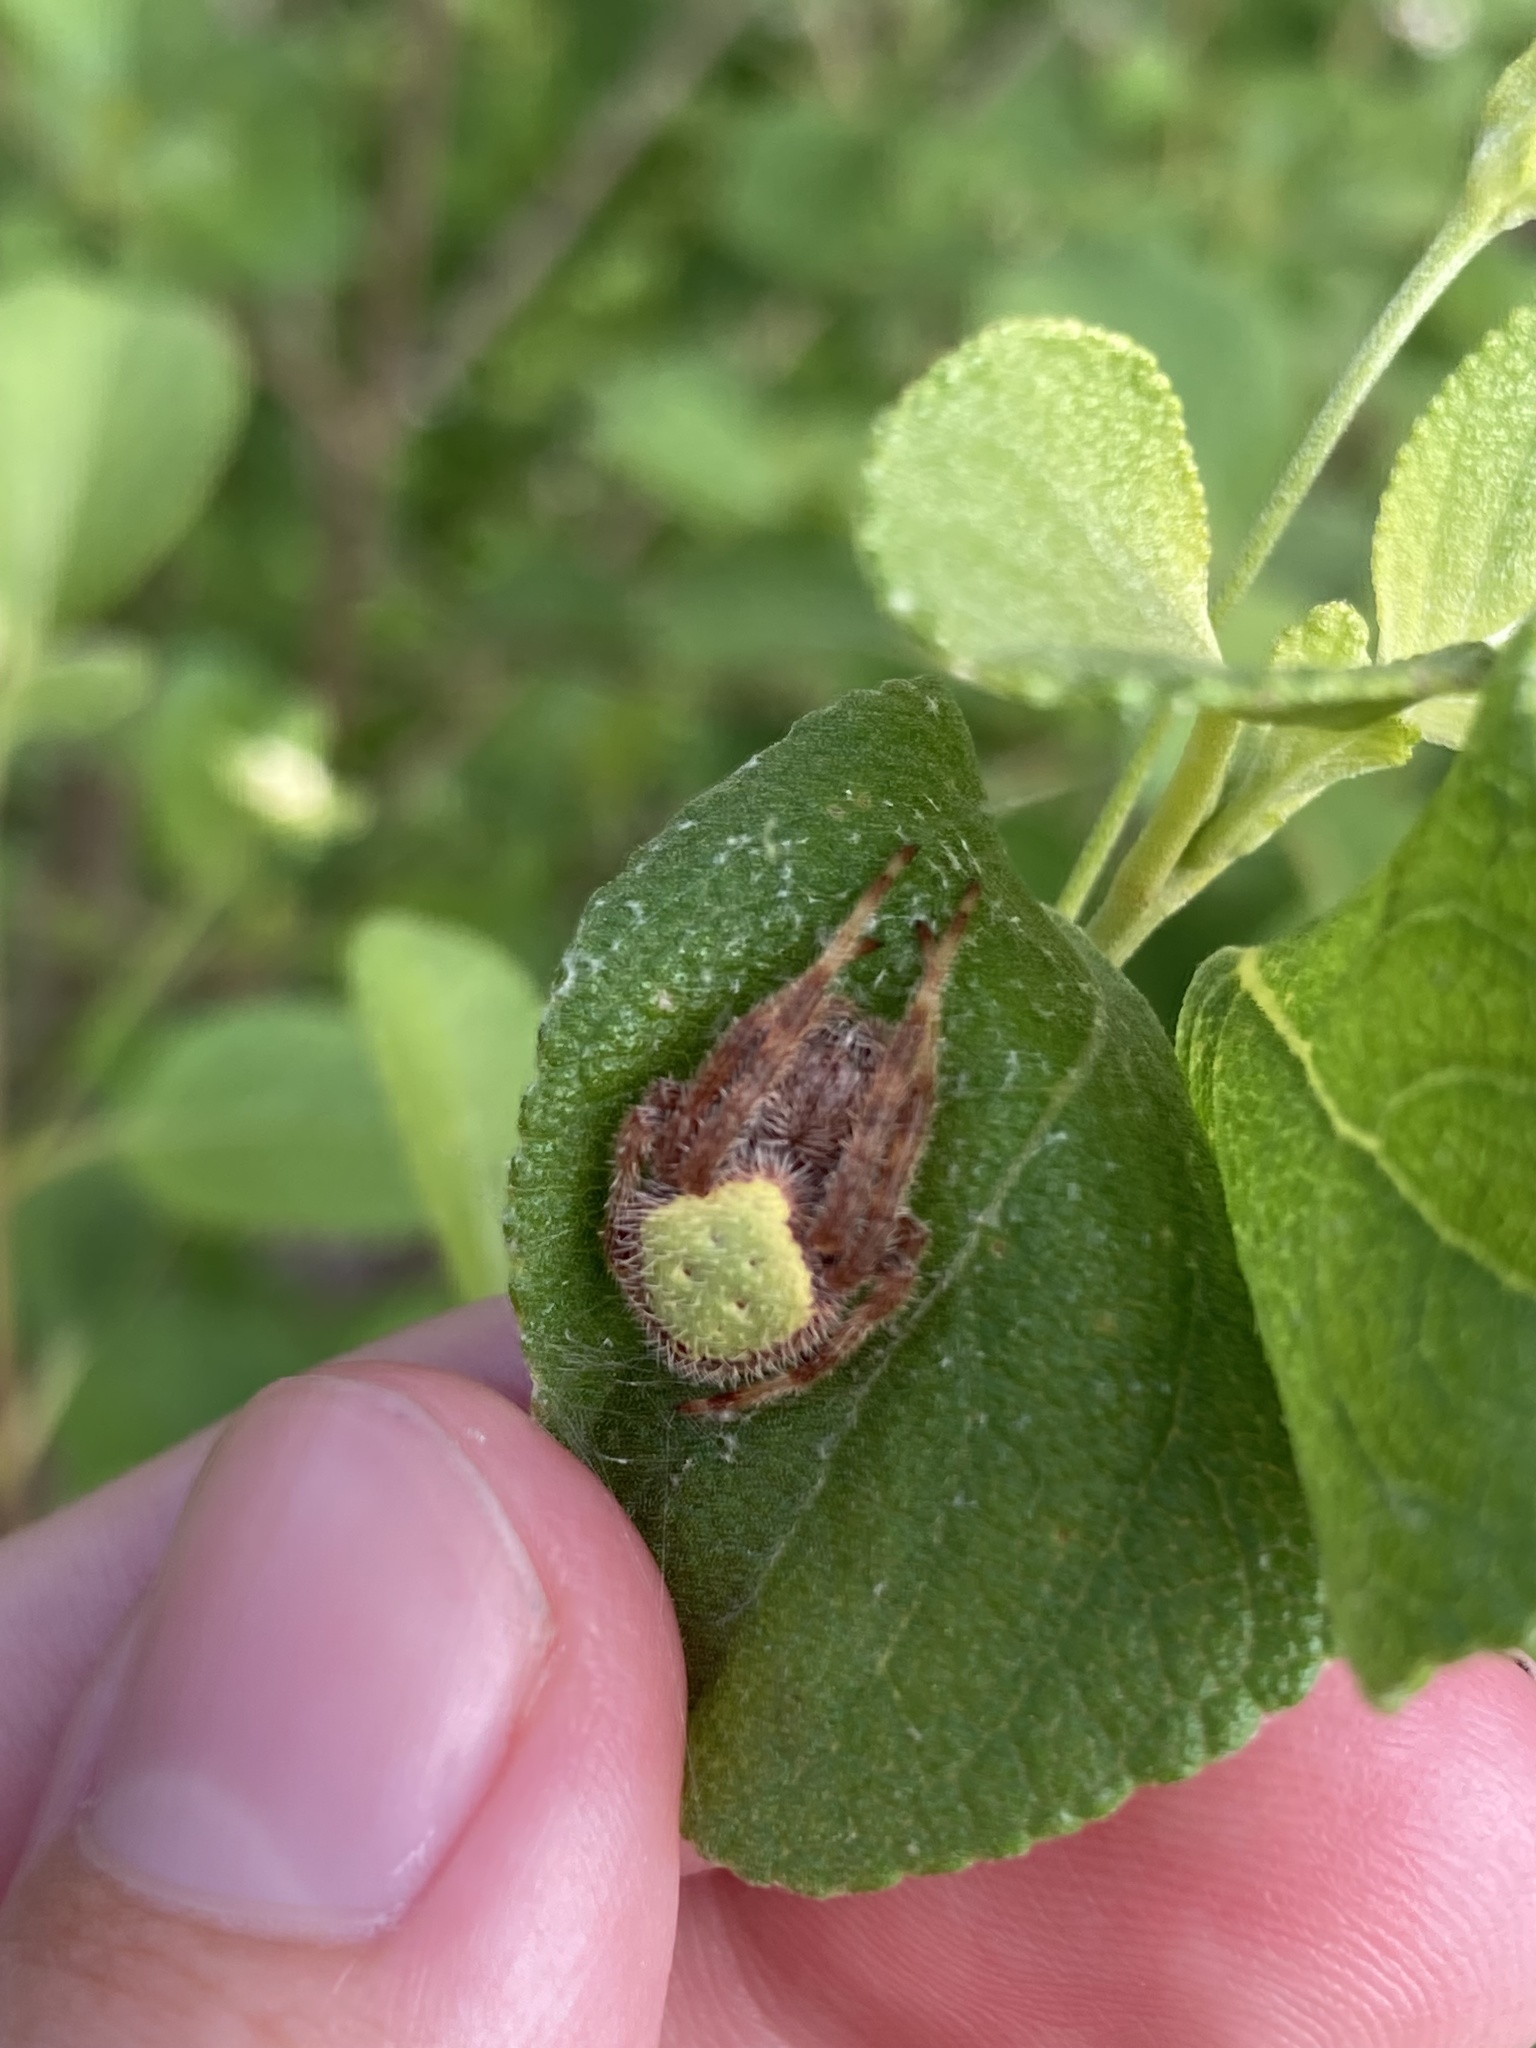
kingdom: Animalia
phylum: Arthropoda
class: Arachnida
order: Araneae
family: Araneidae
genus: Eriophora
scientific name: Eriophora ravilla
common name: Orb weavers
